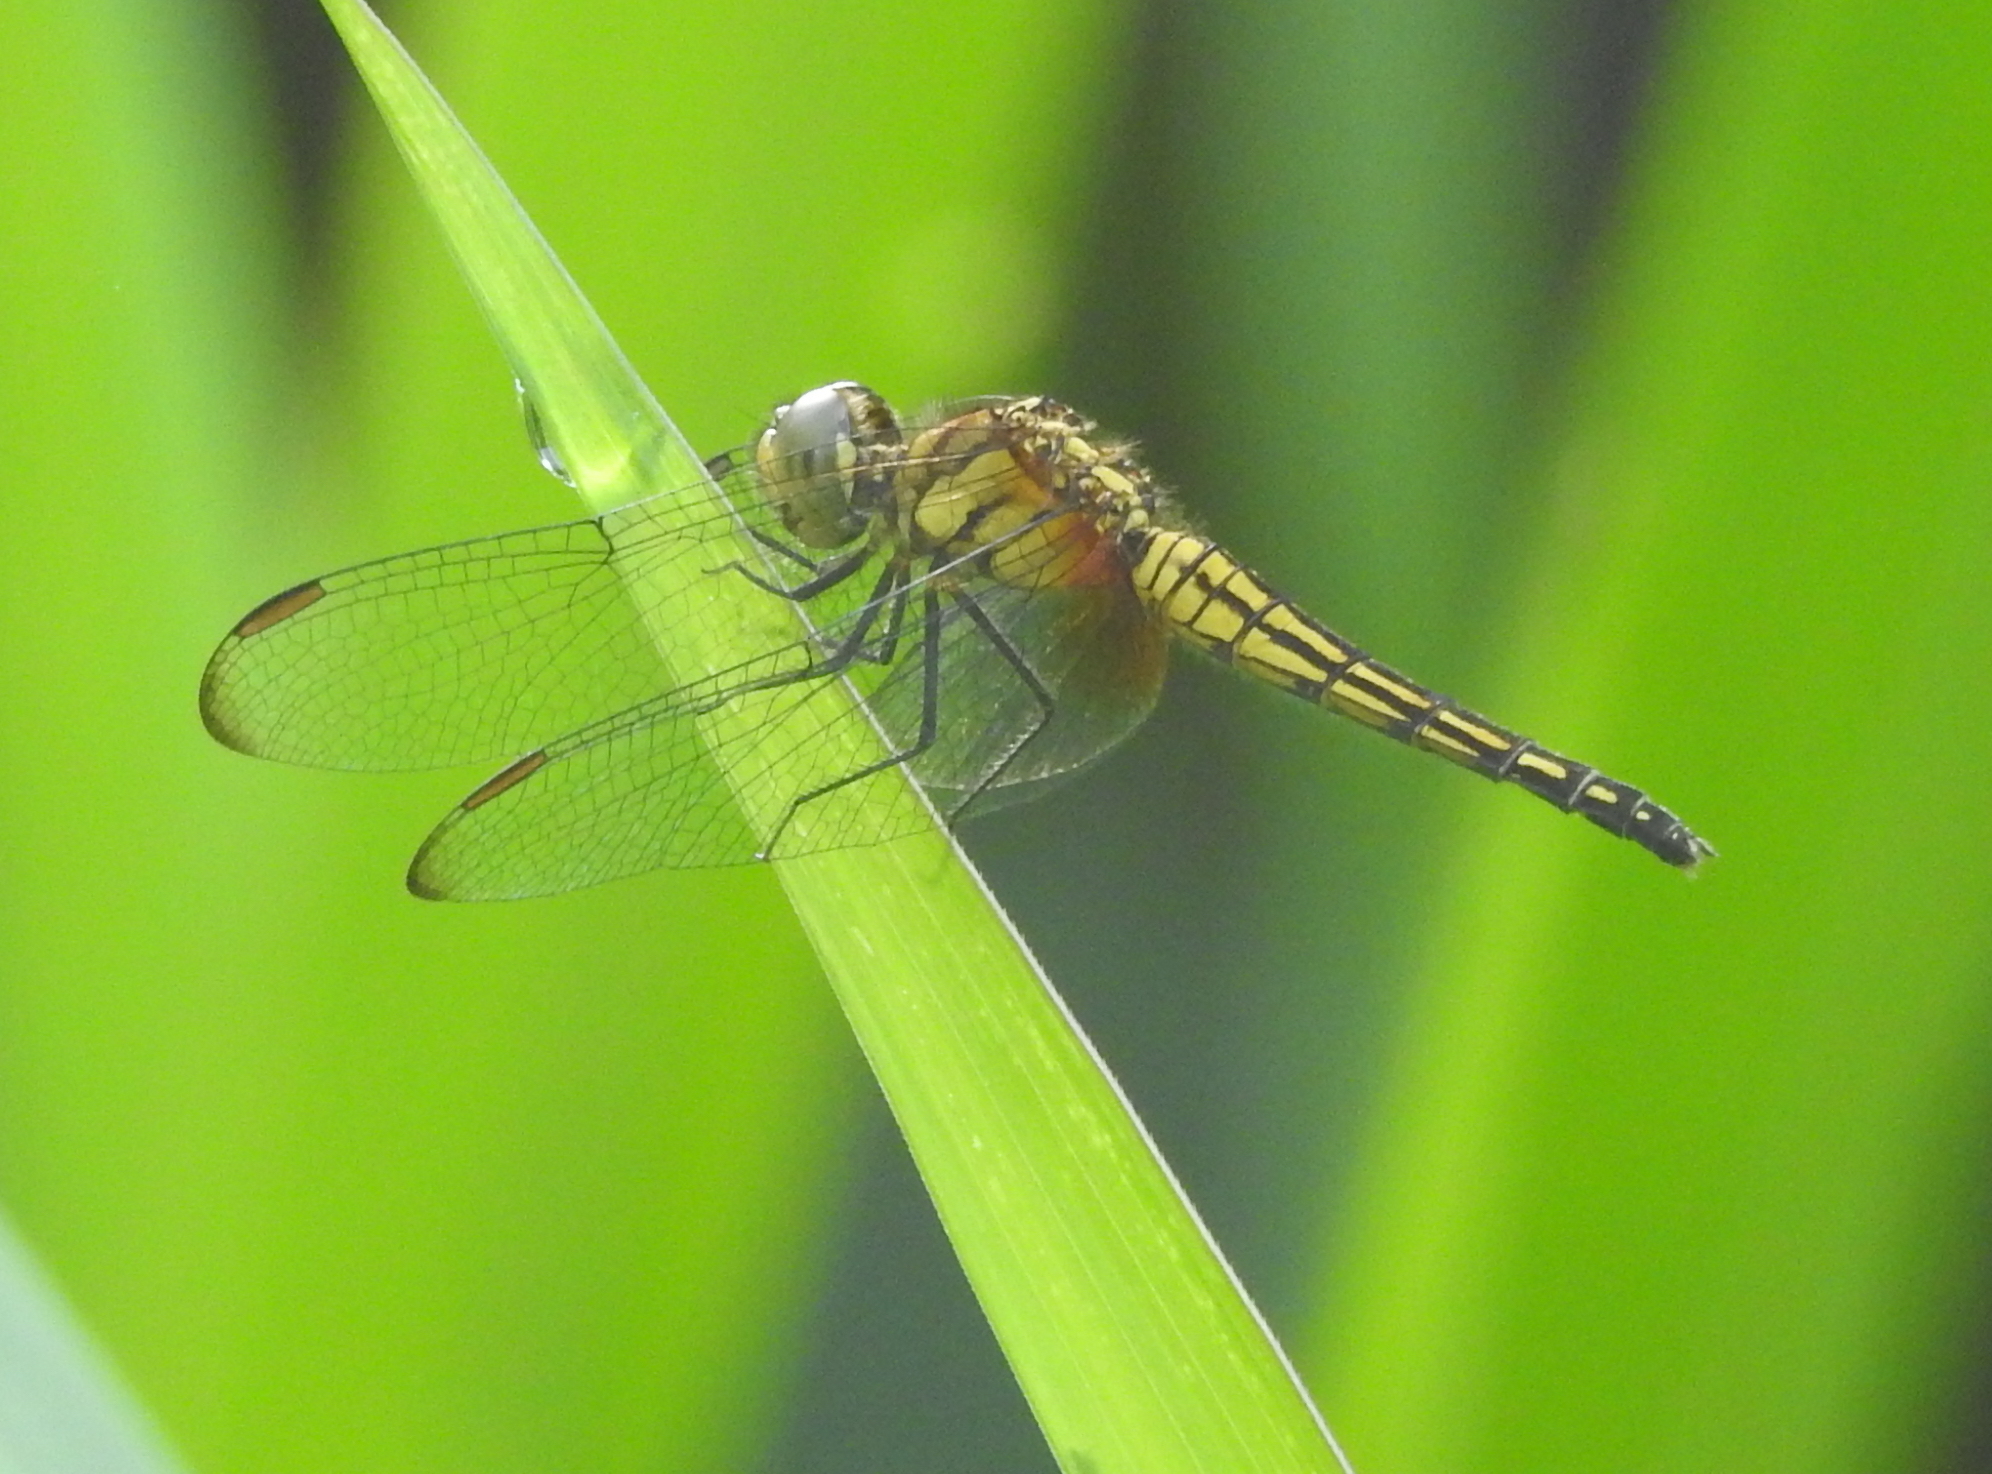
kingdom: Animalia
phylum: Arthropoda
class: Insecta
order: Odonata
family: Libellulidae
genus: Indothemis
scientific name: Indothemis limbata
